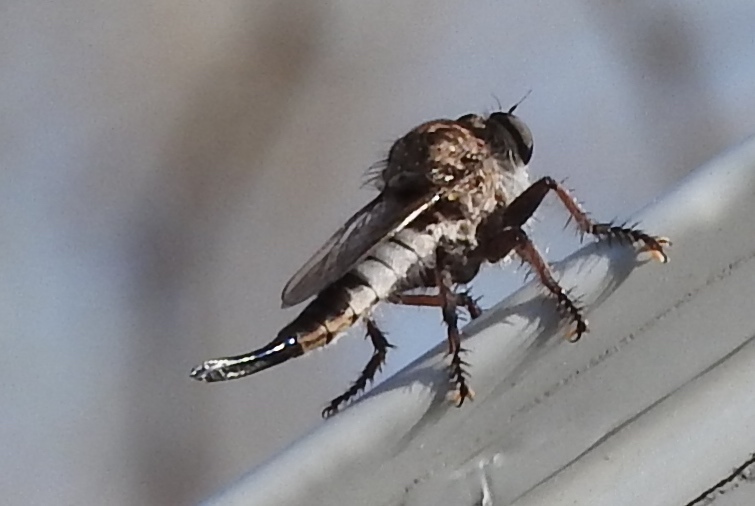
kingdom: Animalia
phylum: Arthropoda
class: Insecta
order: Diptera
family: Asilidae
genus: Efferia
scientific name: Efferia
